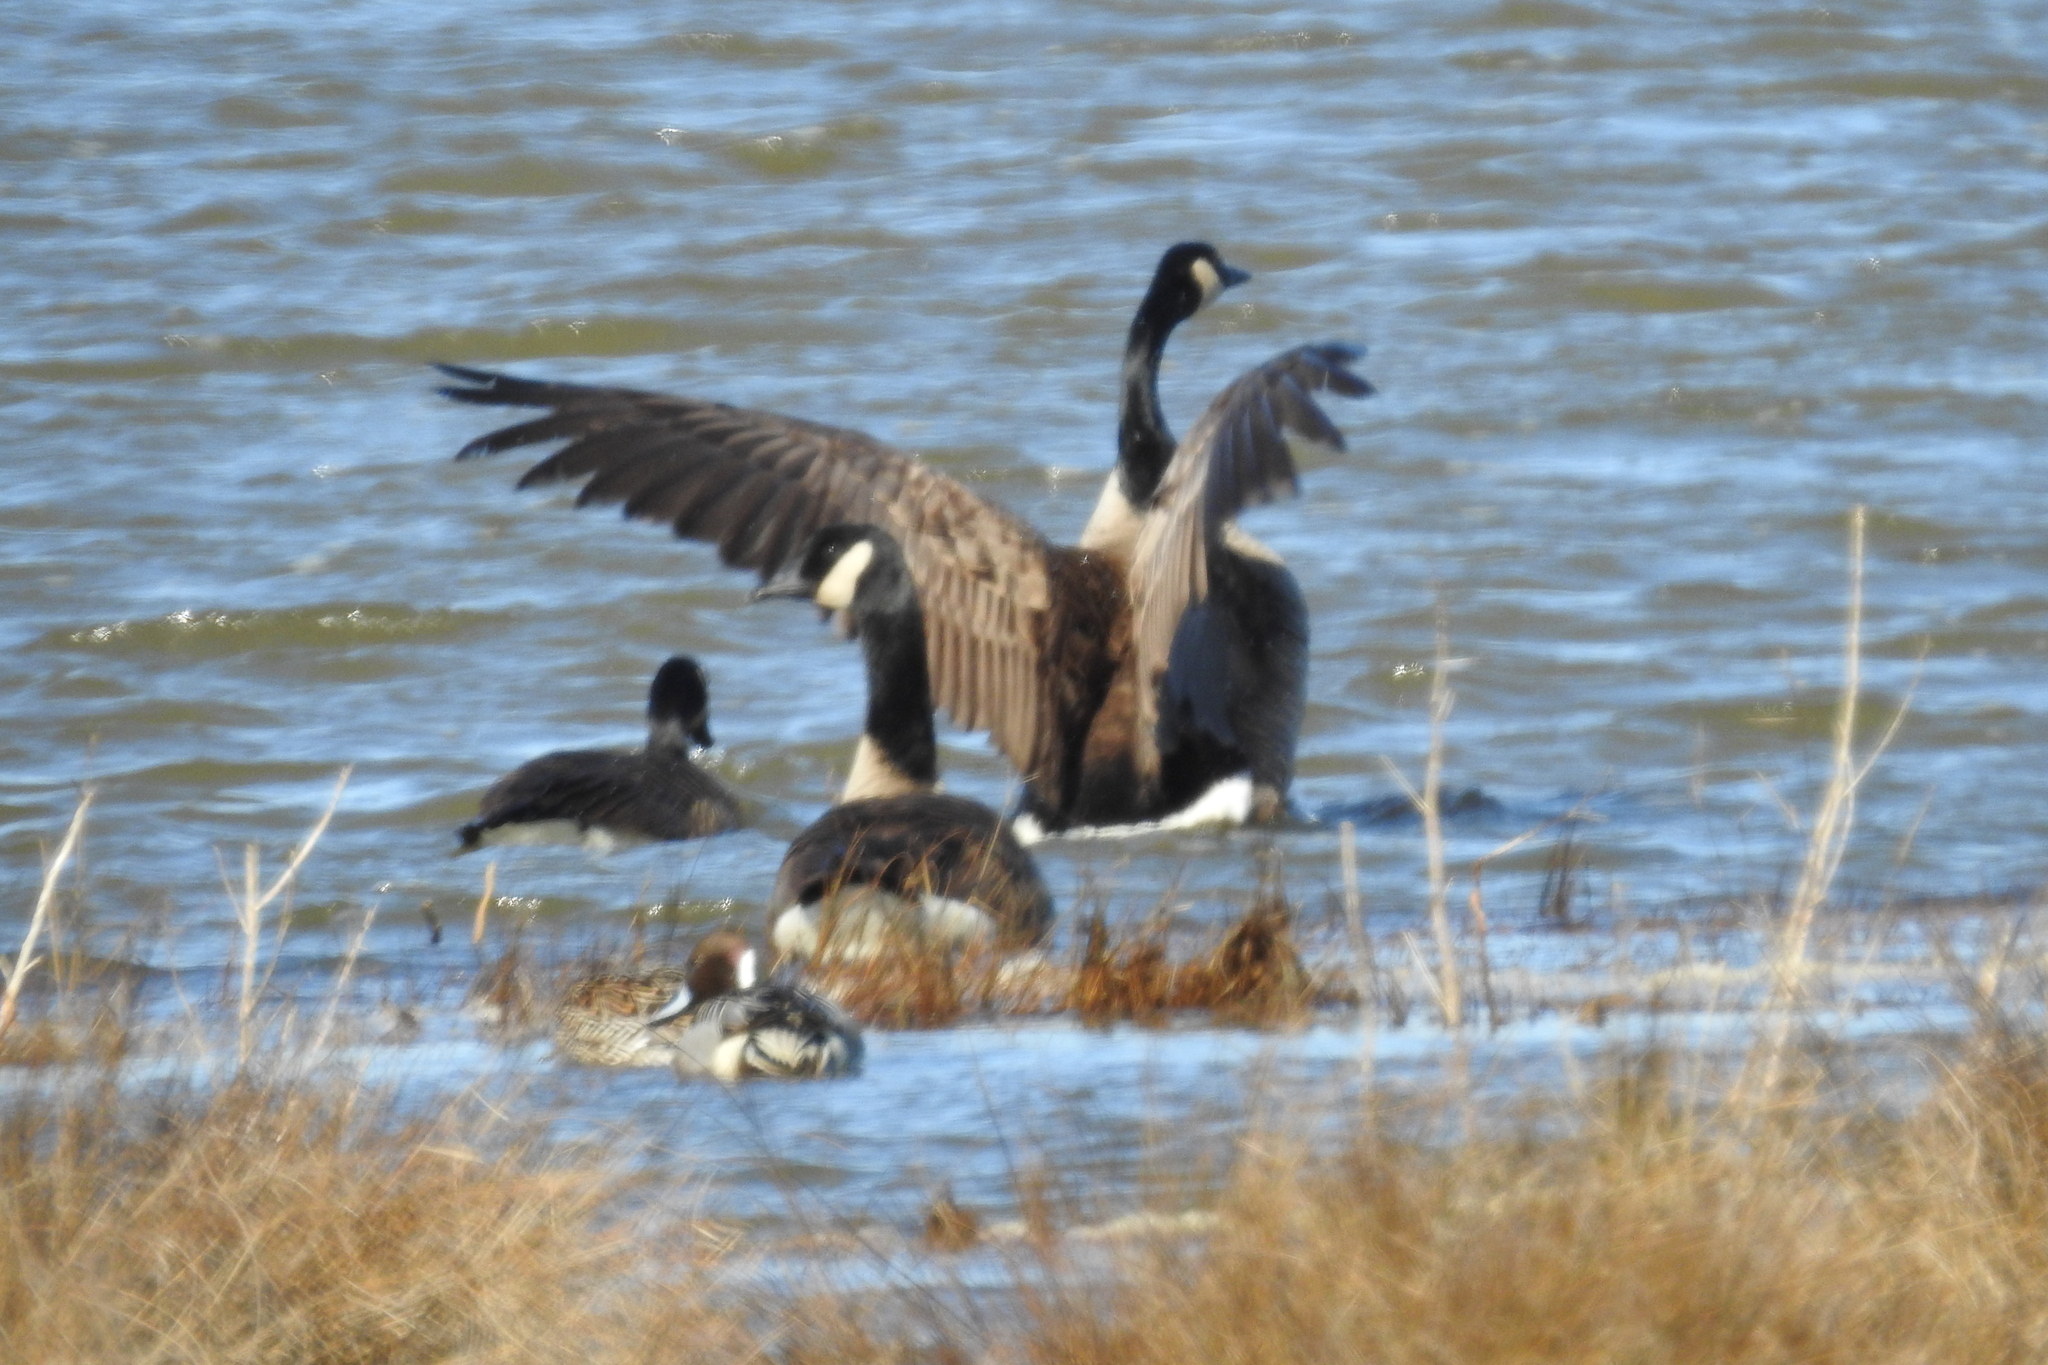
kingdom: Animalia
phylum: Chordata
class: Aves
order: Anseriformes
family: Anatidae
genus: Branta
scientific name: Branta canadensis
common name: Canada goose
